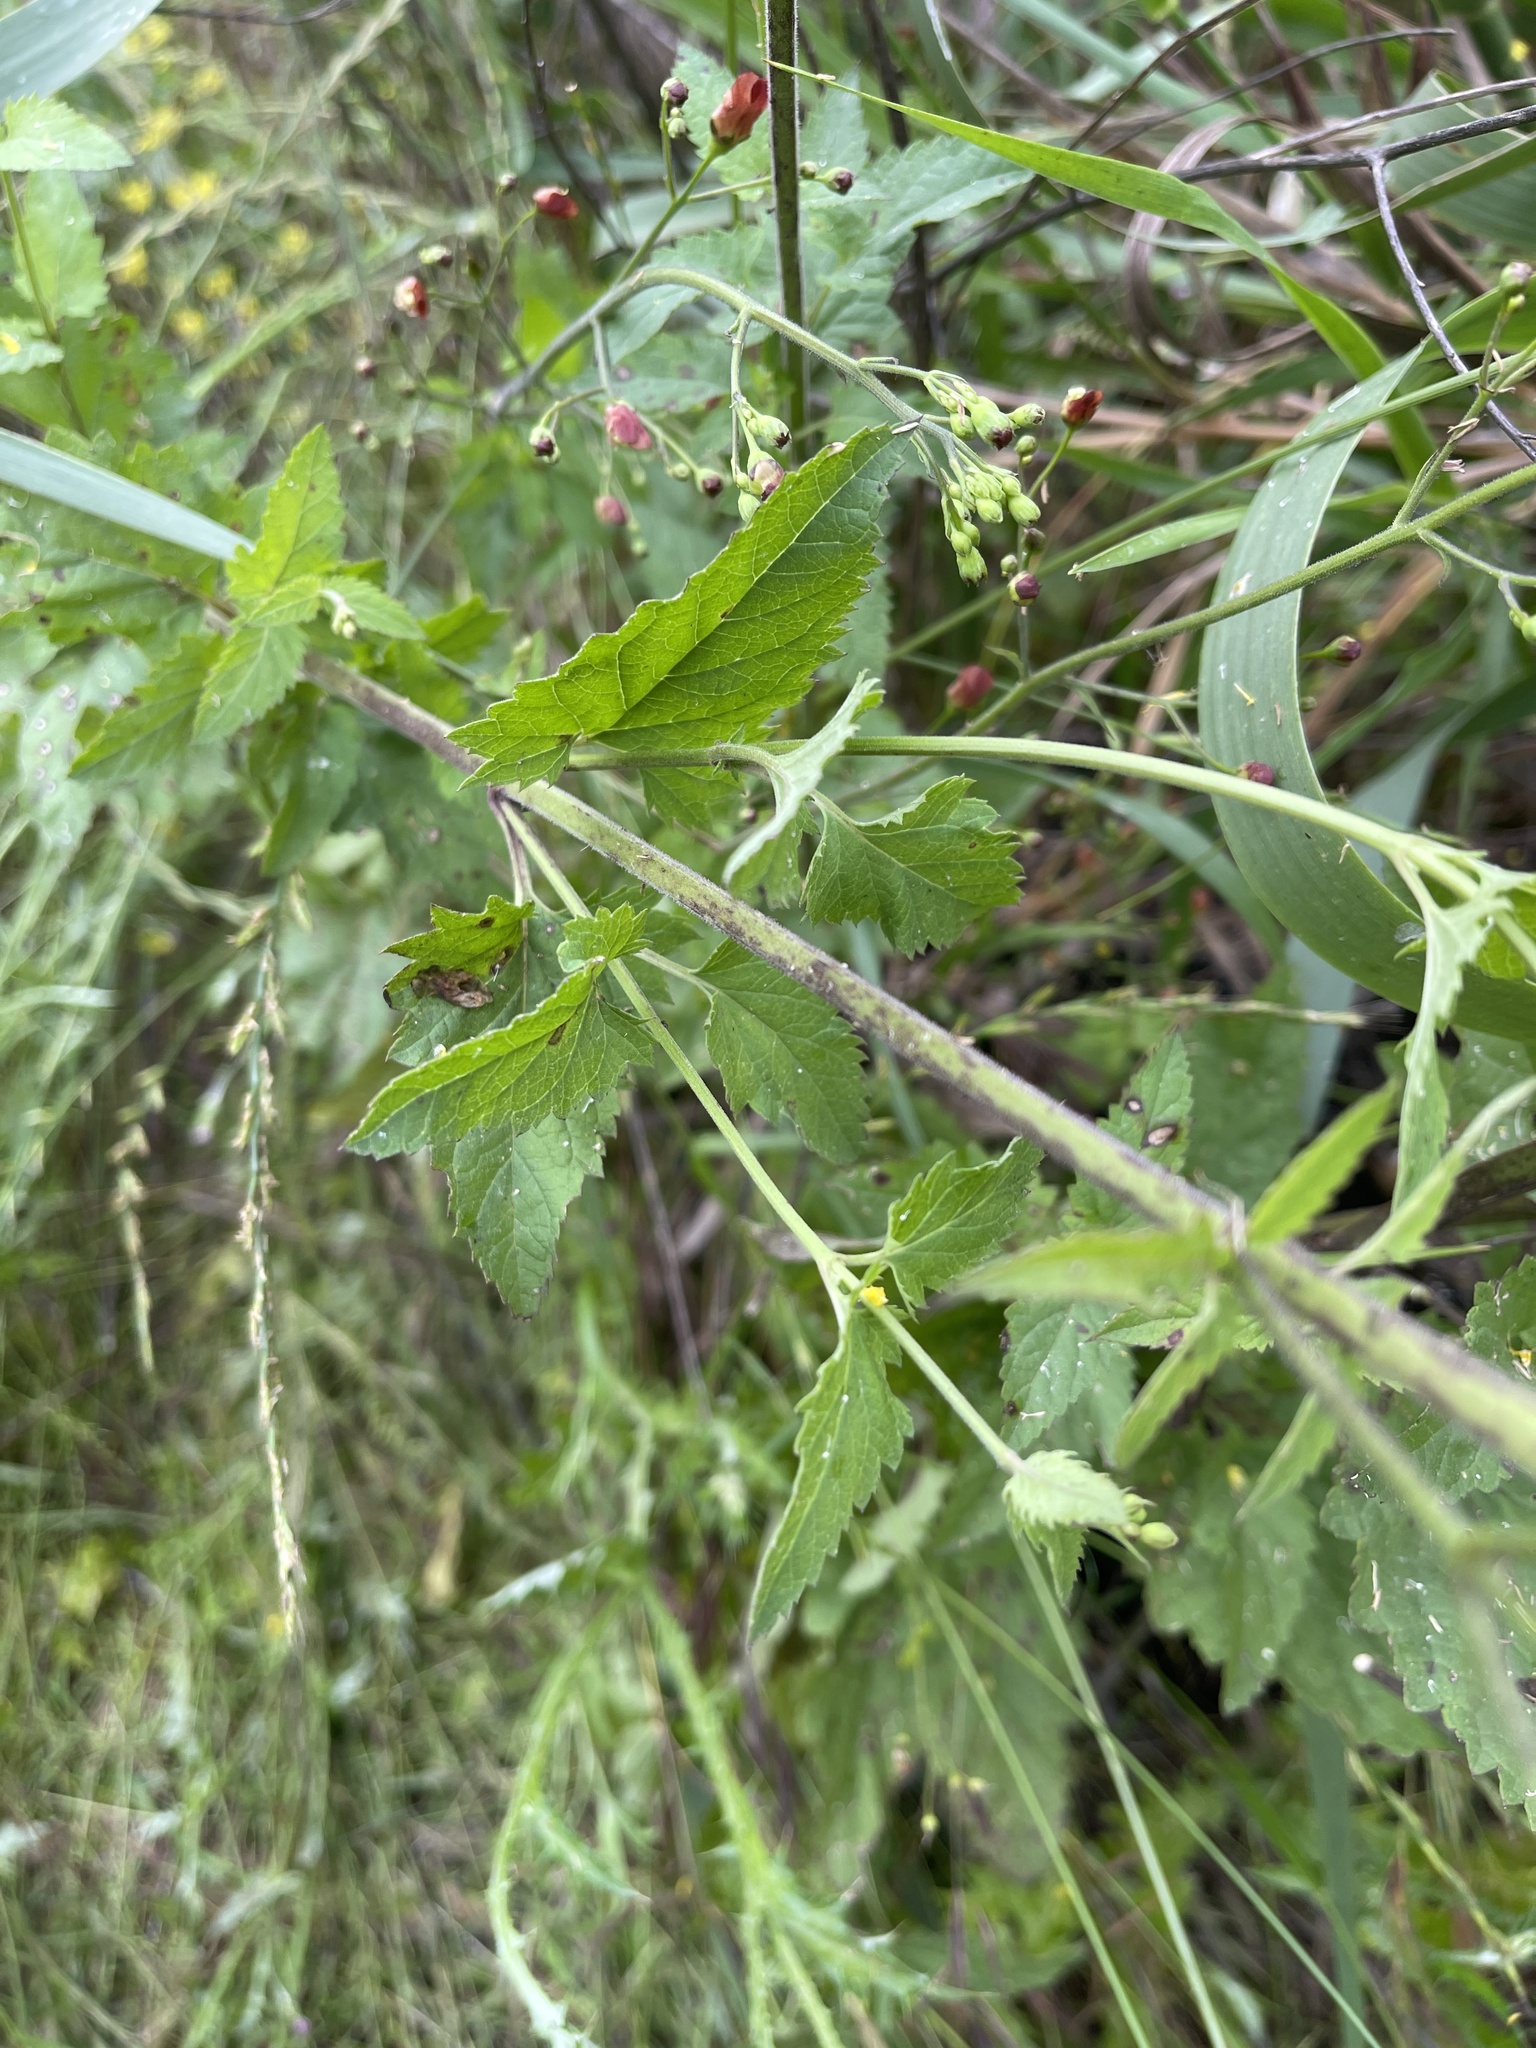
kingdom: Plantae
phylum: Tracheophyta
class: Magnoliopsida
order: Lamiales
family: Scrophulariaceae
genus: Scrophularia
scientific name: Scrophularia californica
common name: California figwort
